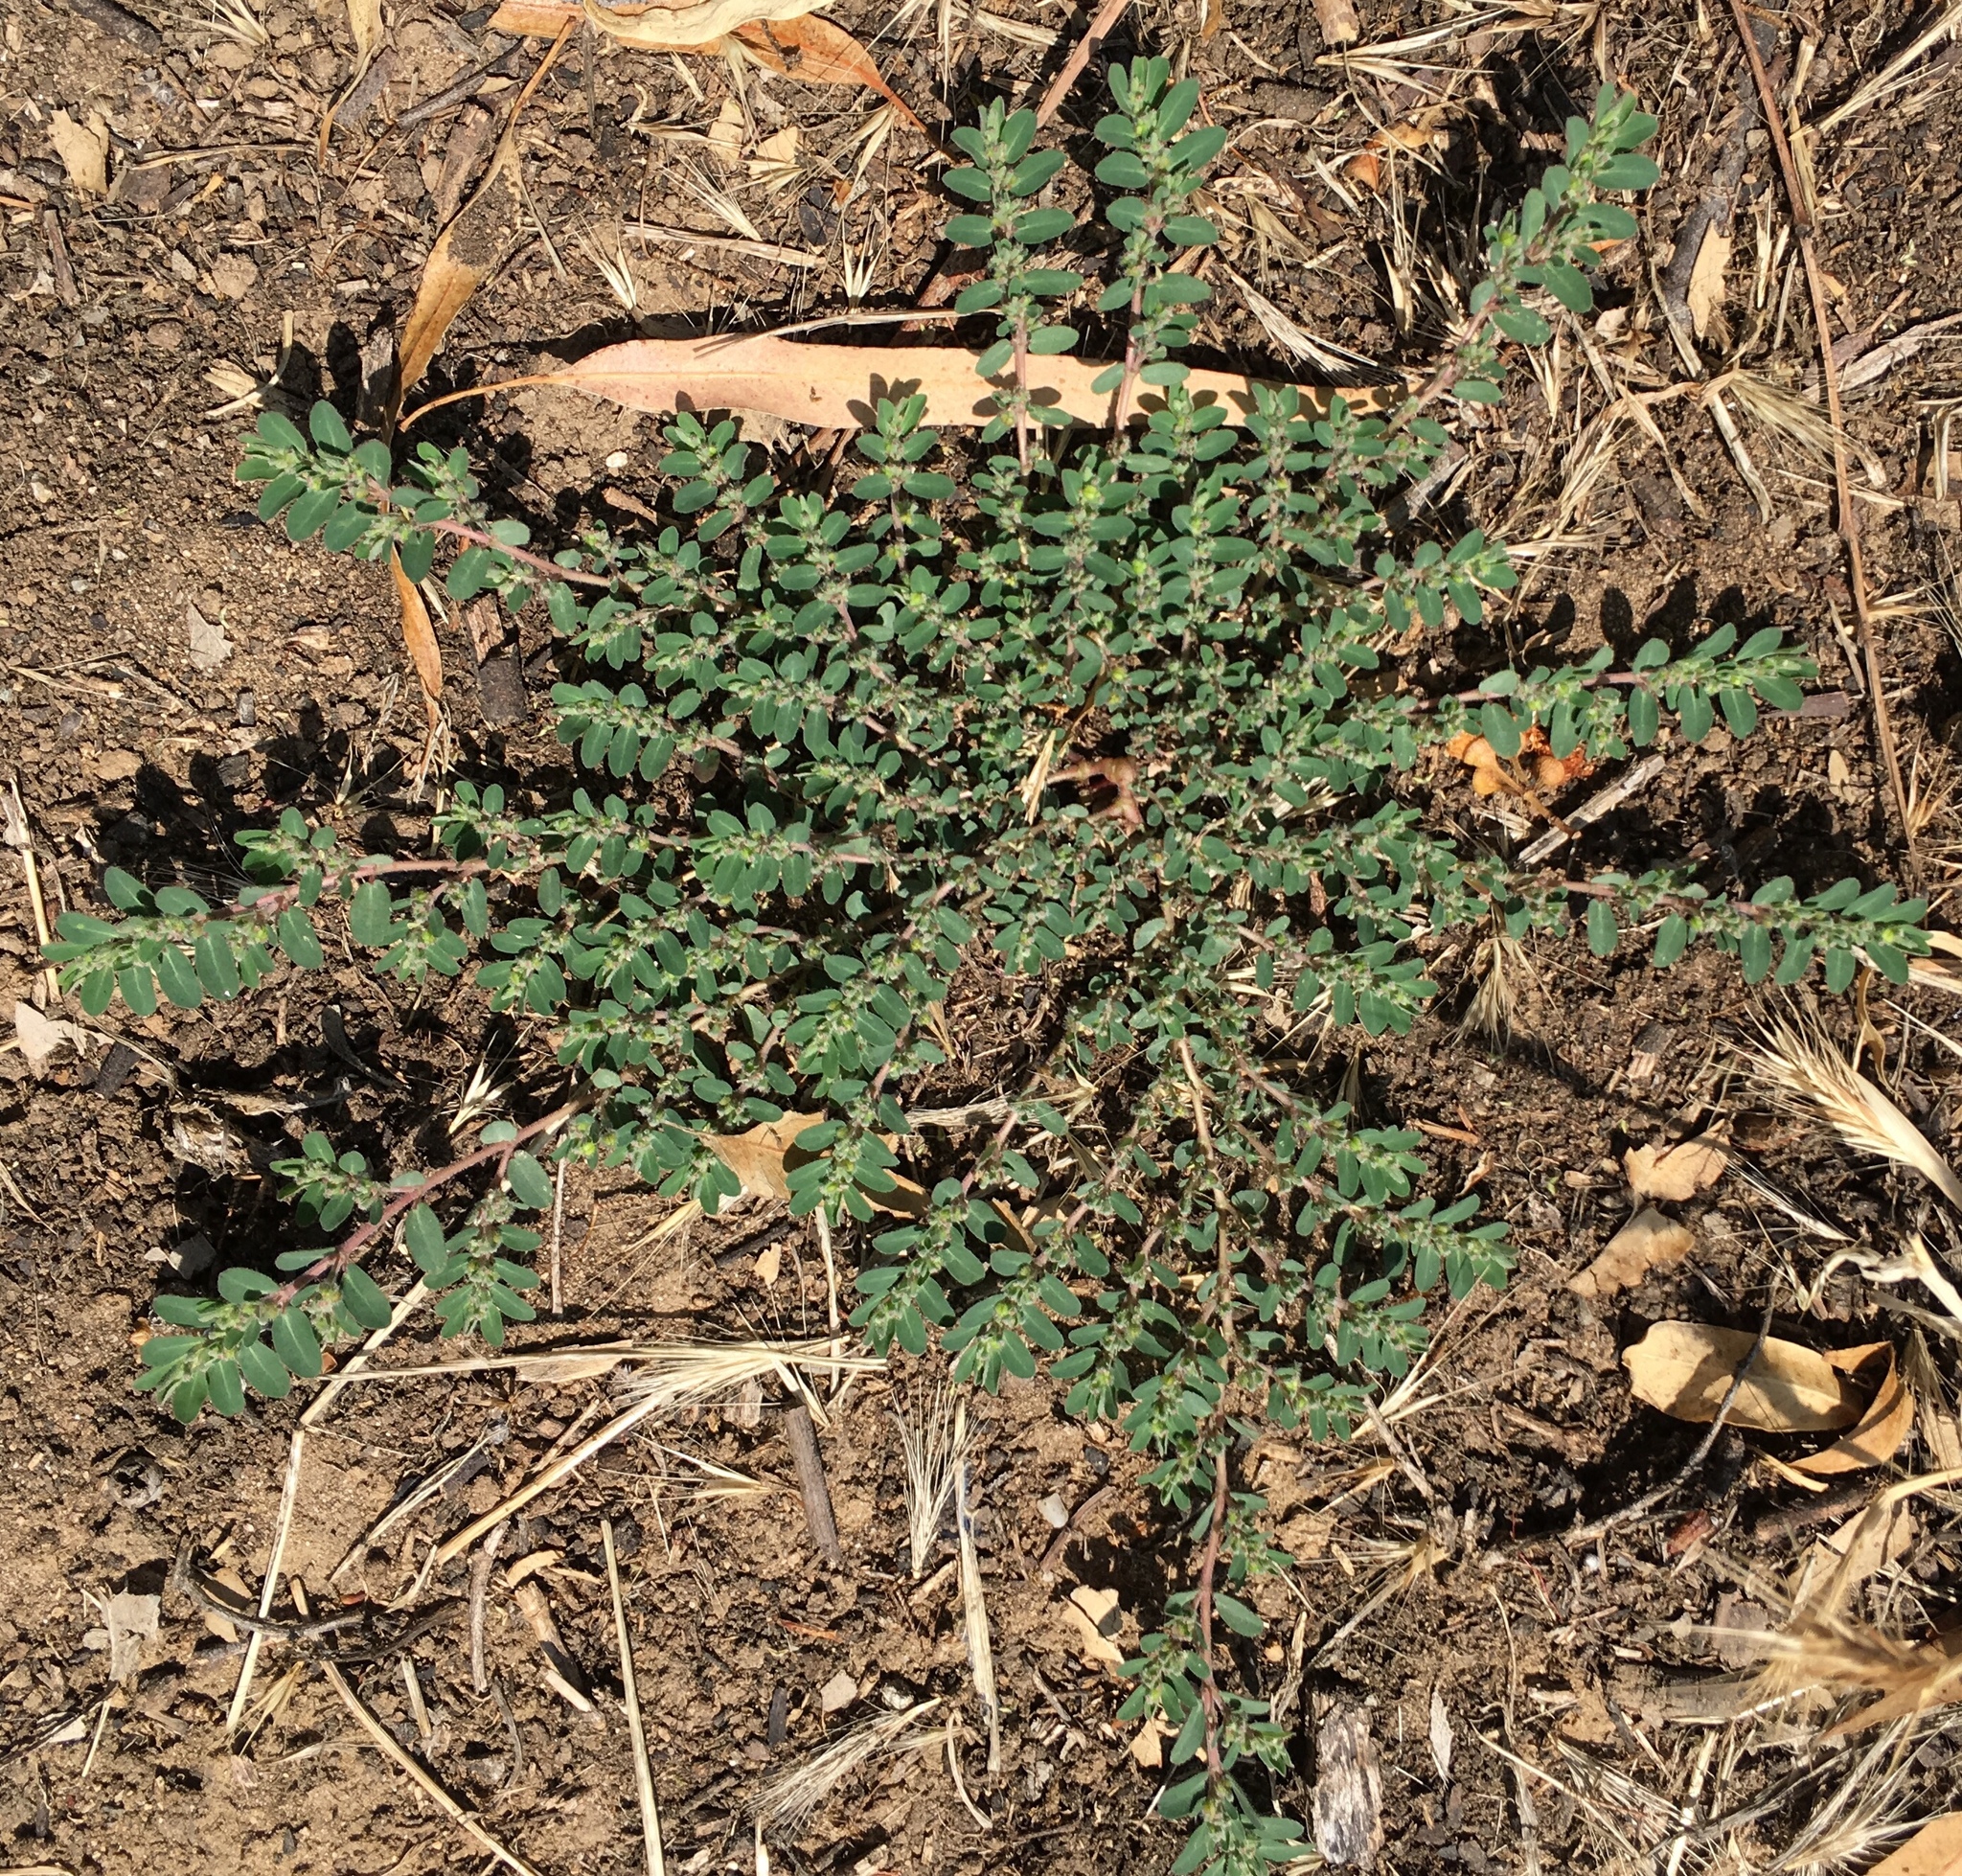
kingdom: Plantae
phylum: Tracheophyta
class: Magnoliopsida
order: Malpighiales
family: Euphorbiaceae
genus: Euphorbia
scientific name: Euphorbia prostrata
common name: Prostrate sandmat
